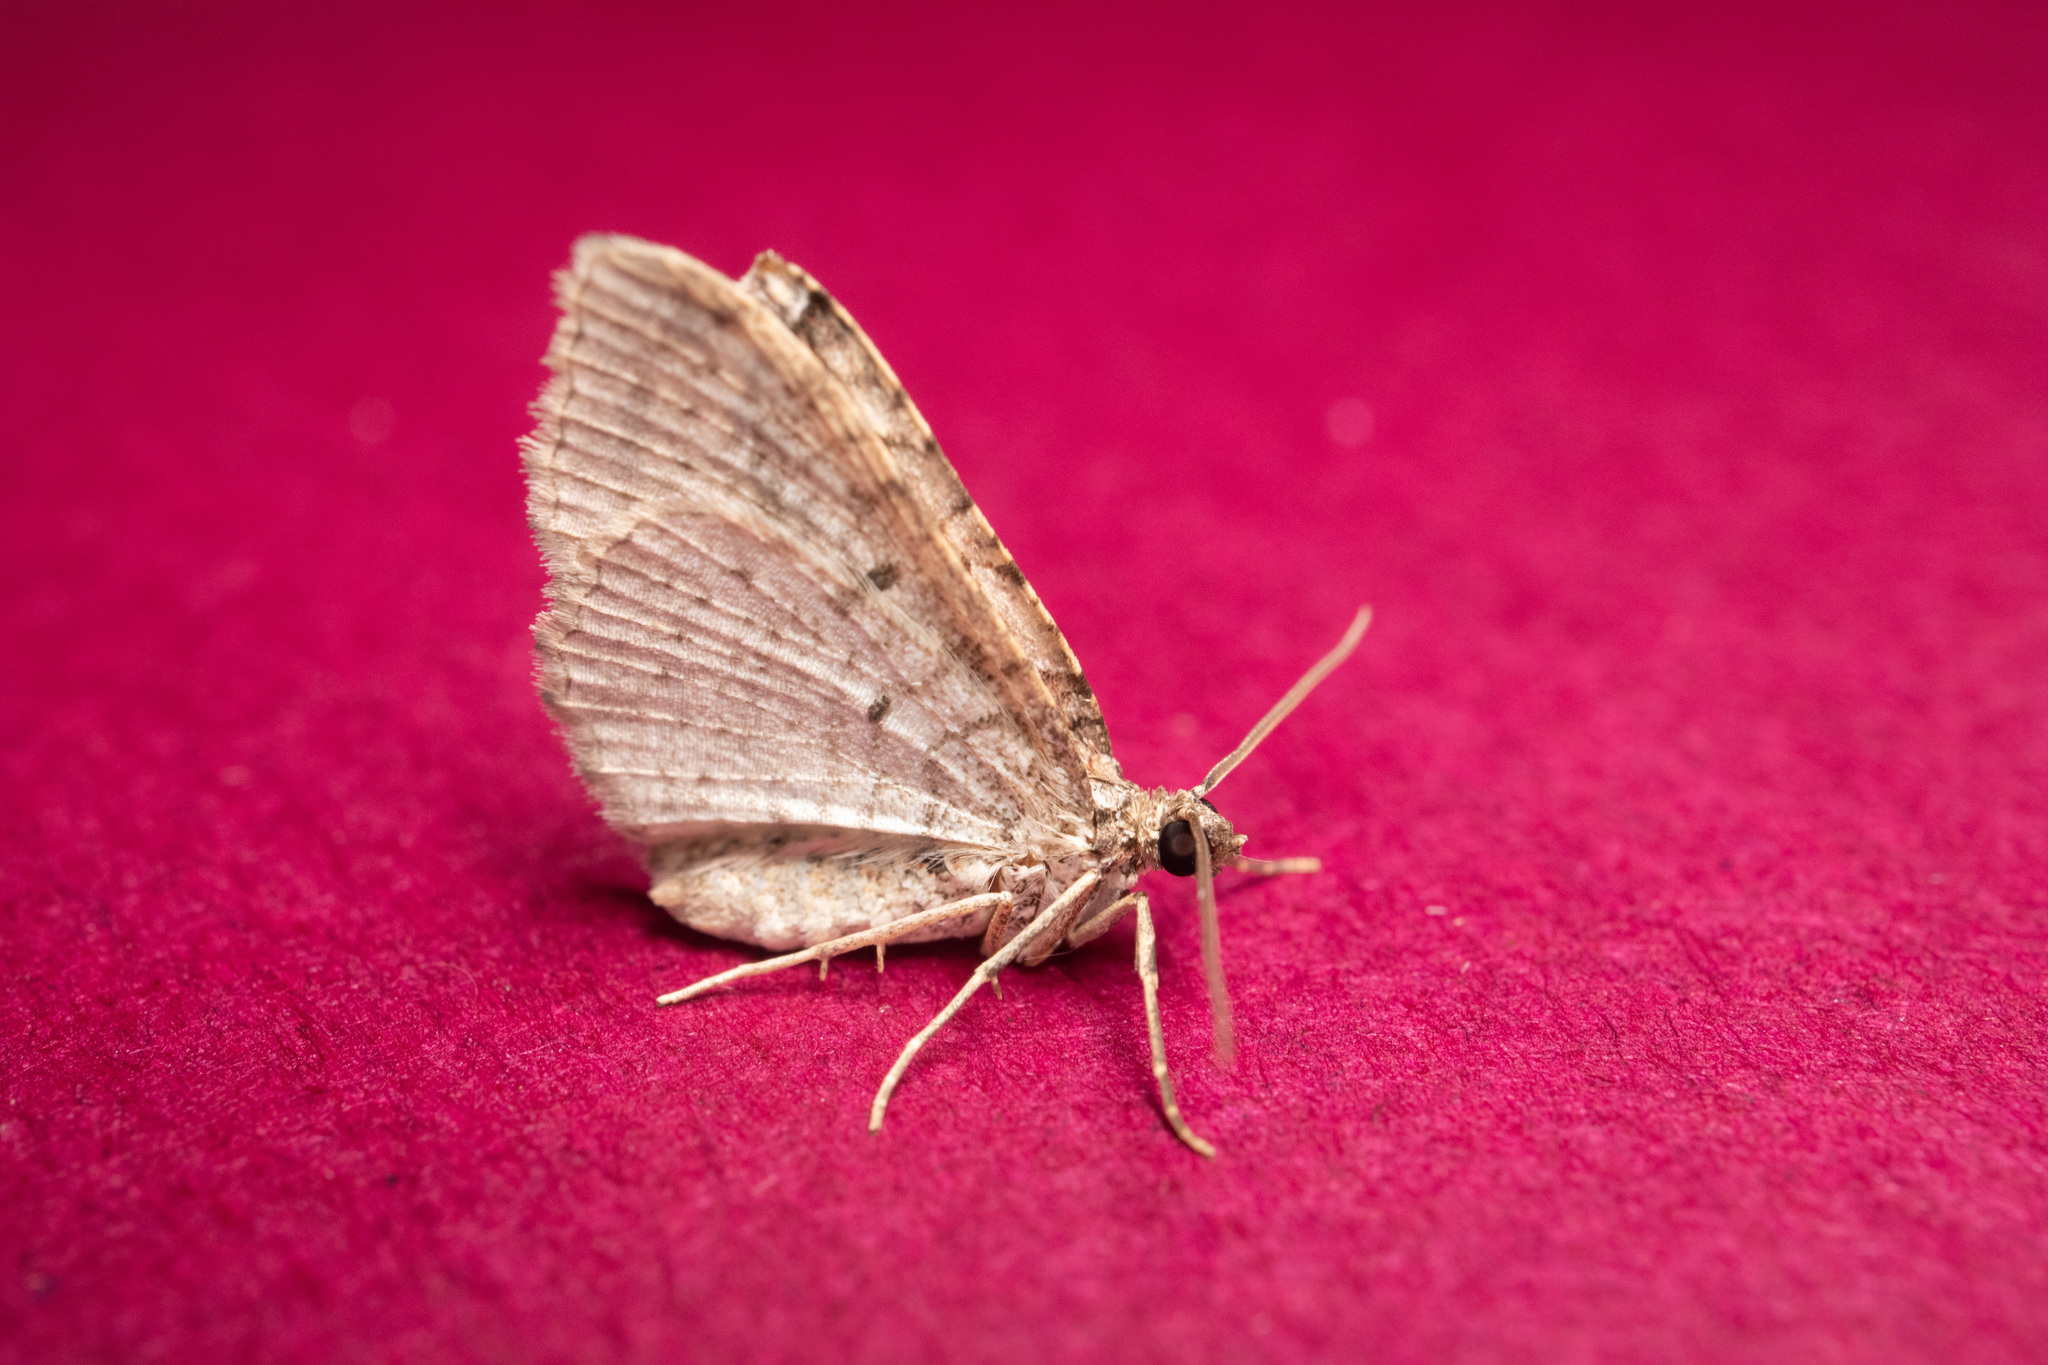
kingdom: Animalia
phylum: Arthropoda
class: Insecta
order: Lepidoptera
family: Geometridae
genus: Costaconvexa
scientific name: Costaconvexa centrostrigaria
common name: Bent-line carpet
